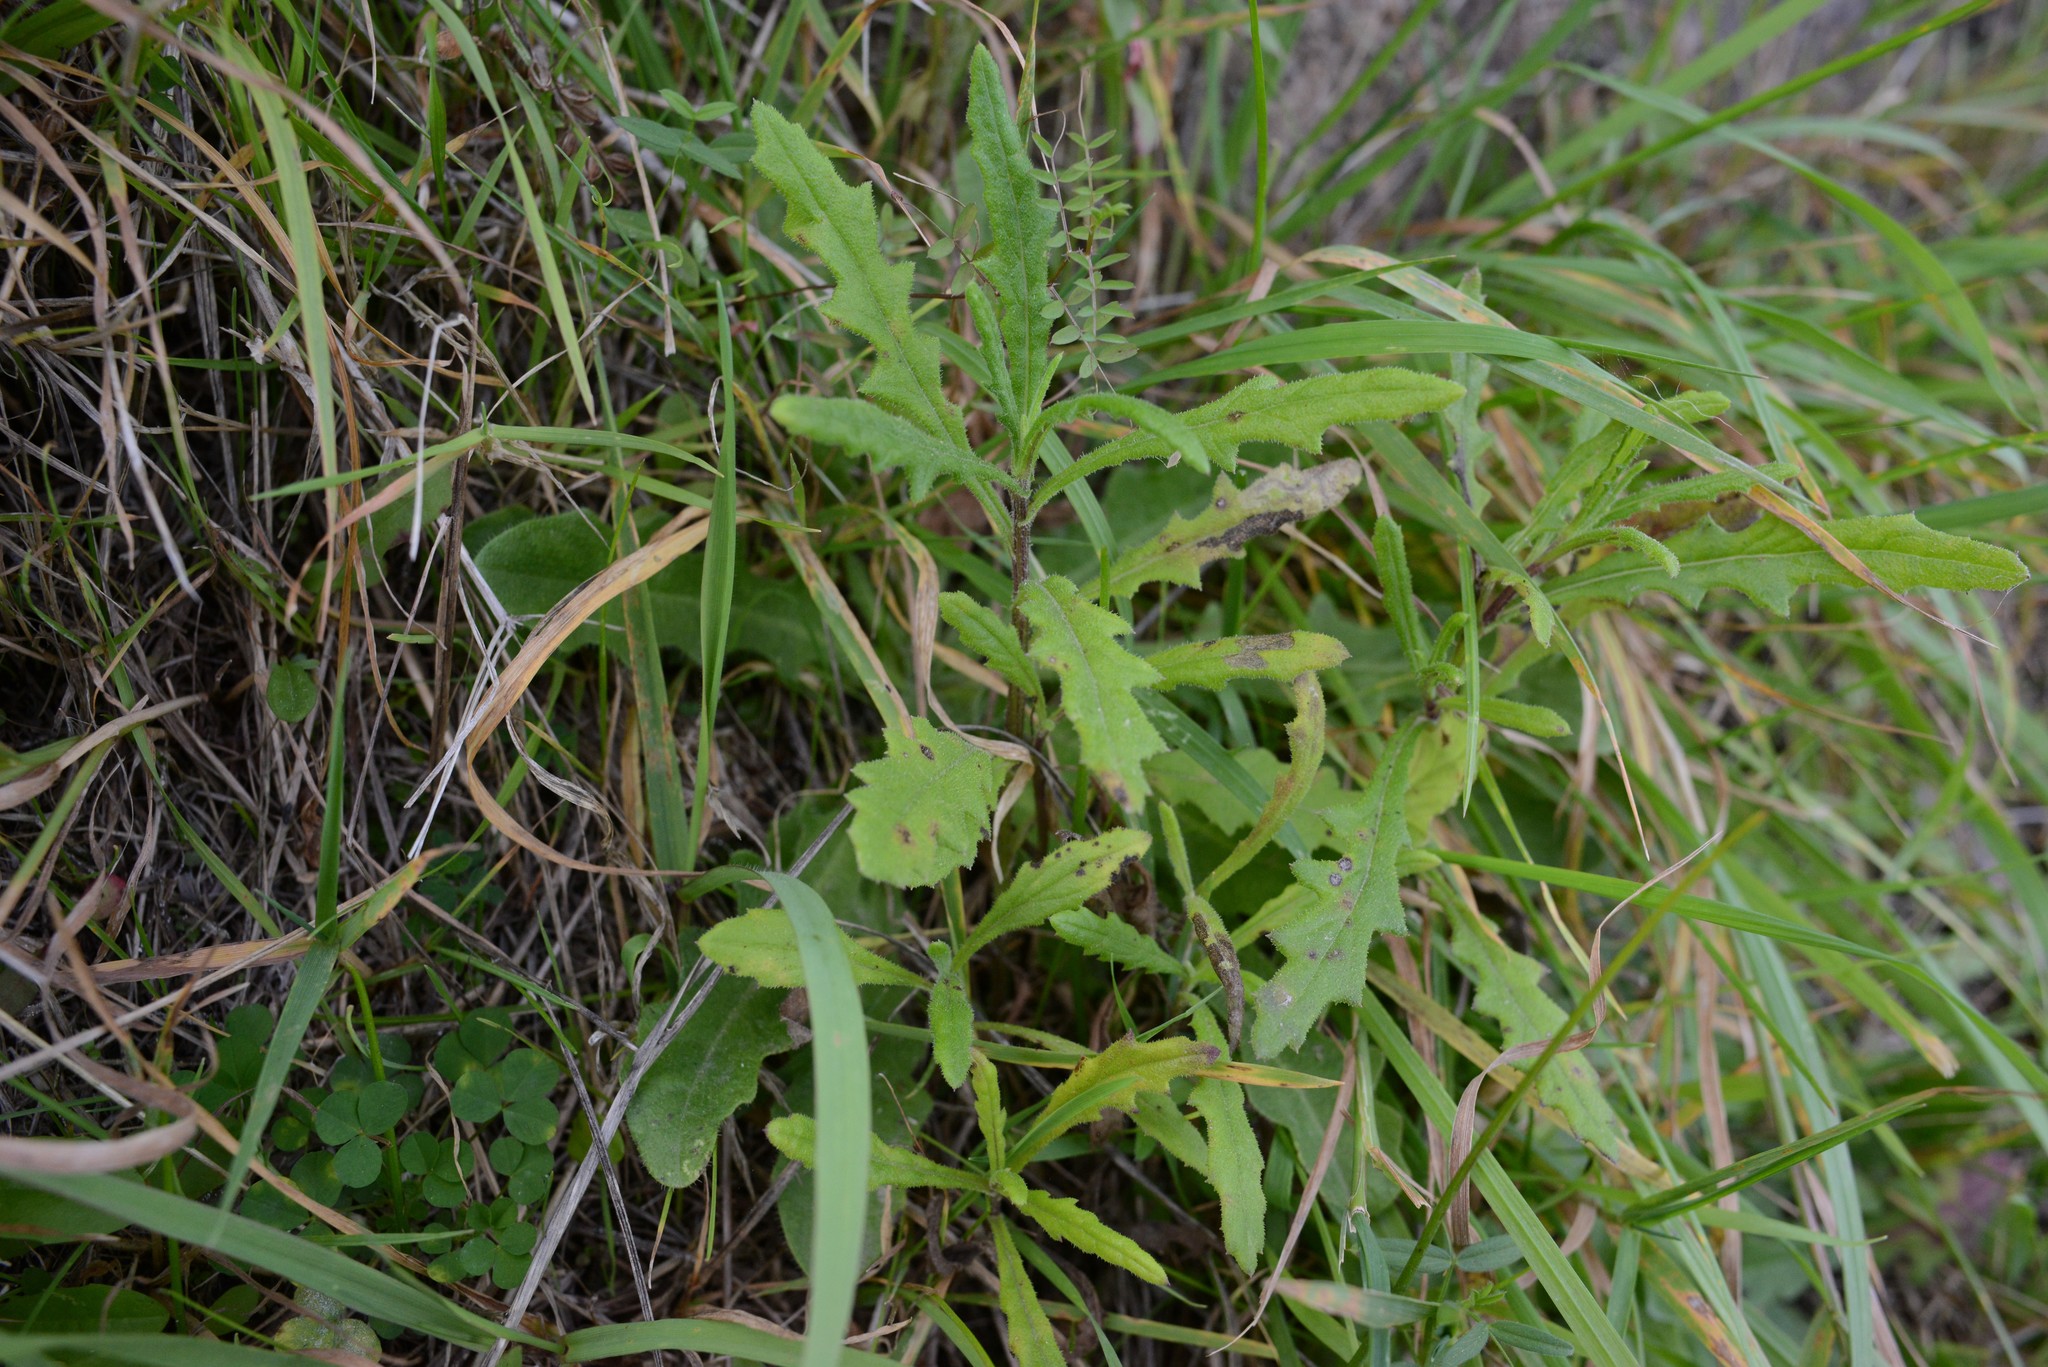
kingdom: Plantae
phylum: Tracheophyta
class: Magnoliopsida
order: Asterales
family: Asteraceae
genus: Senecio
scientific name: Senecio hispidulus
